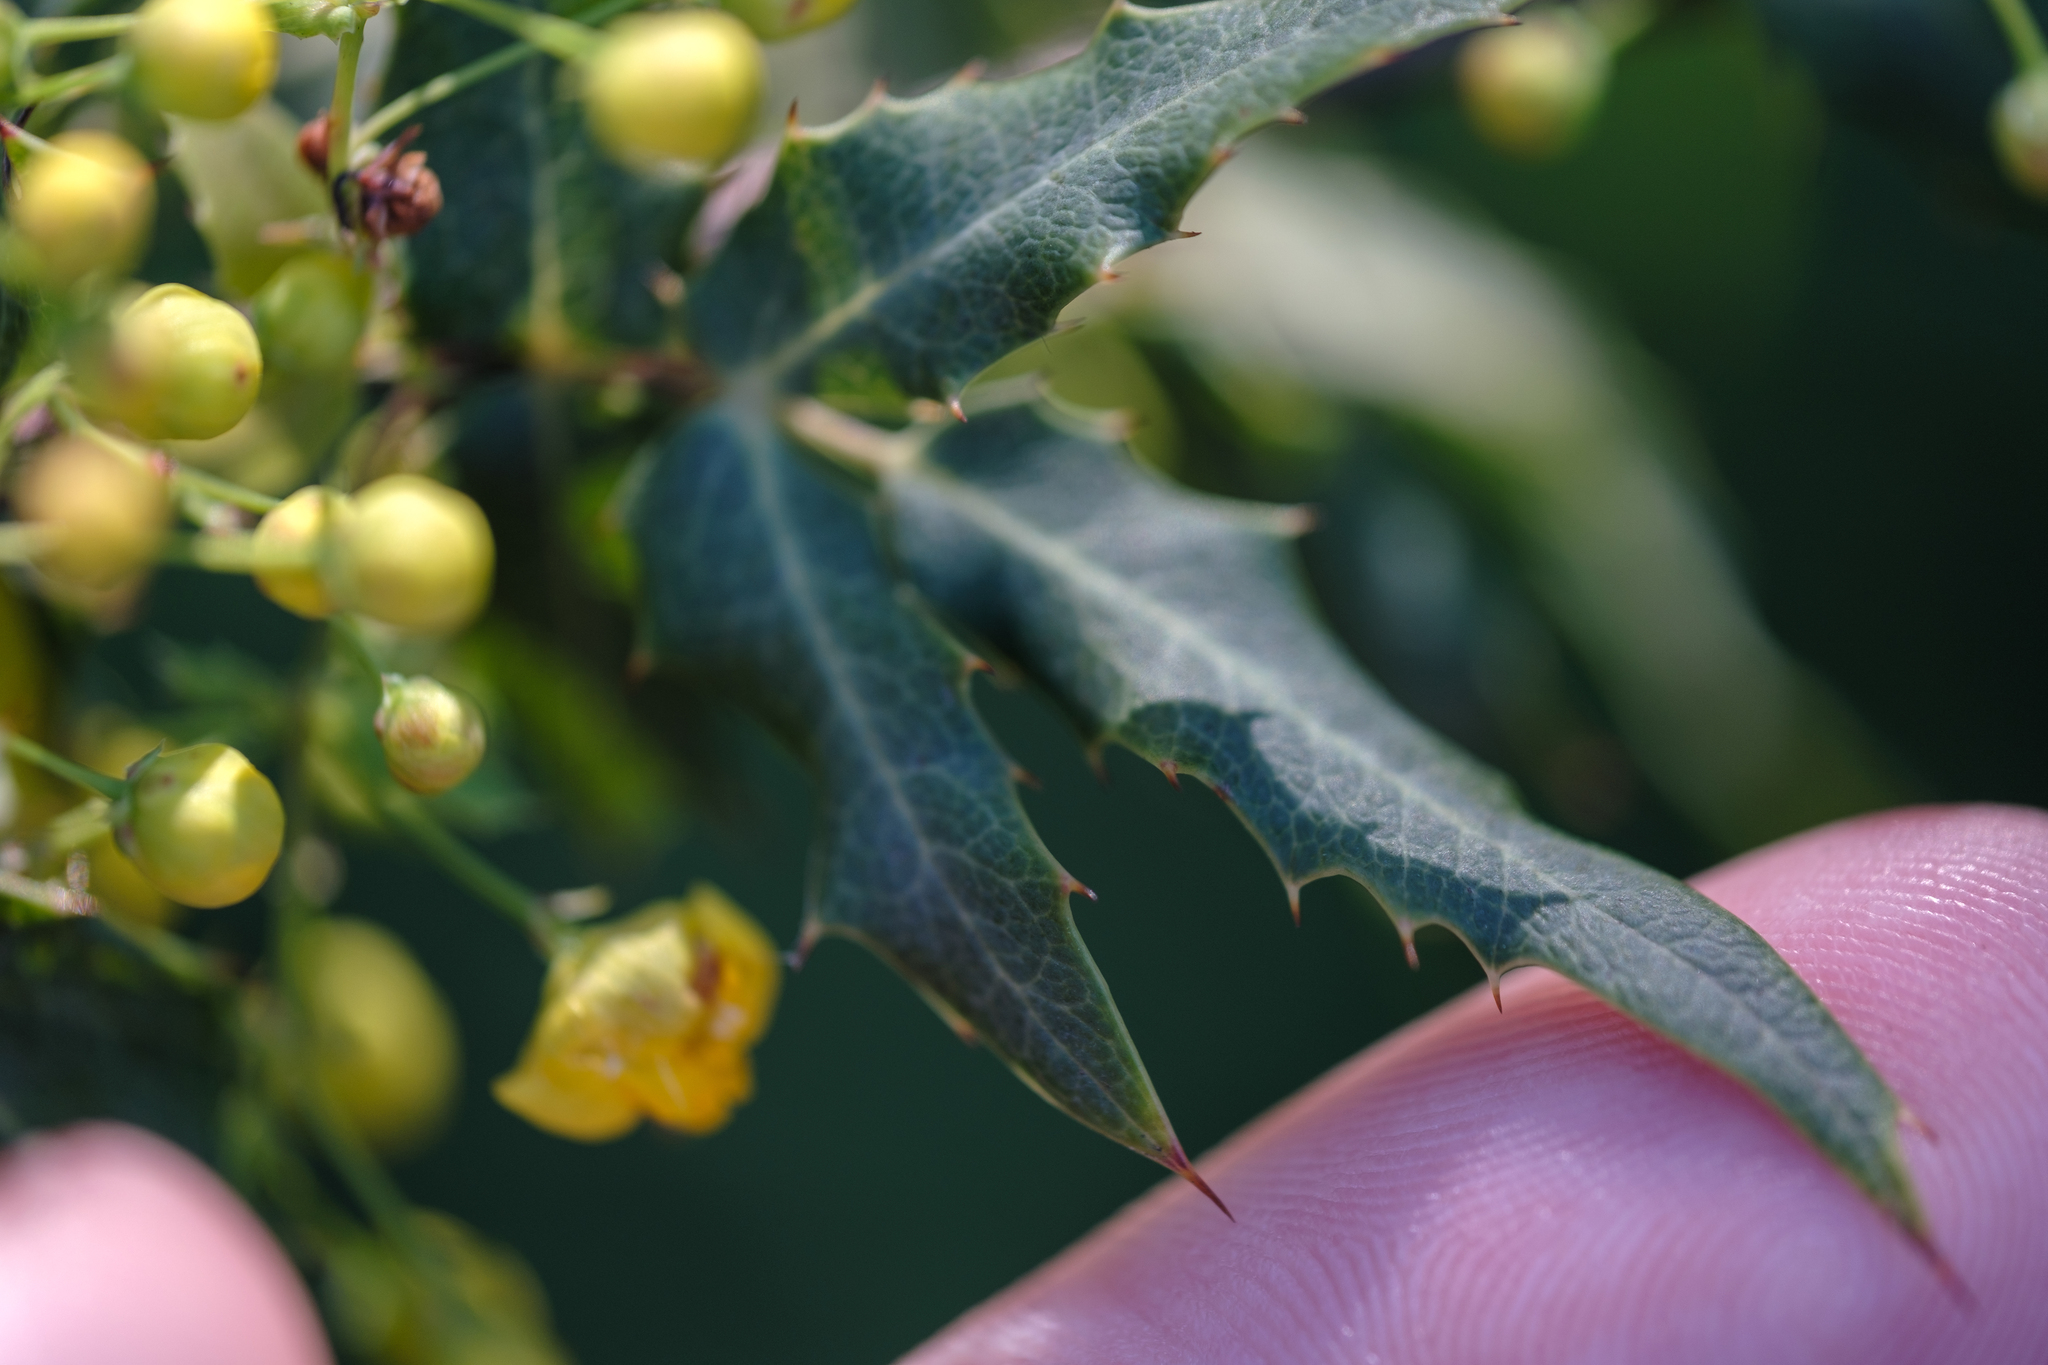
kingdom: Plantae
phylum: Tracheophyta
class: Magnoliopsida
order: Ranunculales
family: Berberidaceae
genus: Alloberberis
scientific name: Alloberberis nevinii
